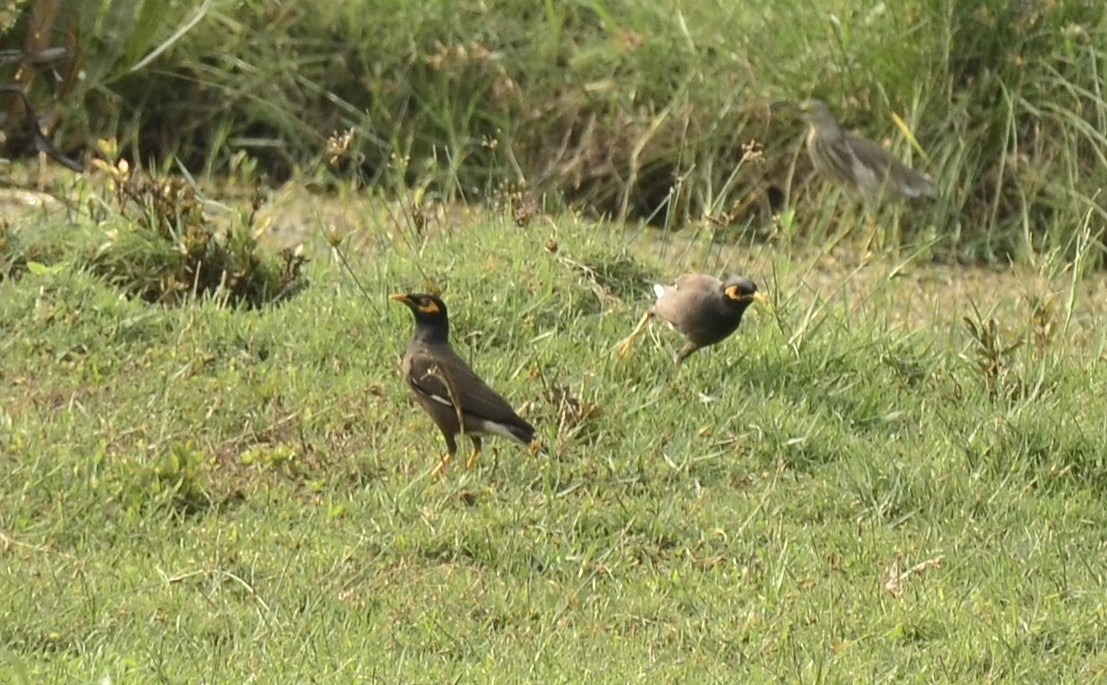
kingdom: Animalia
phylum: Chordata
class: Aves
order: Passeriformes
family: Sturnidae
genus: Acridotheres
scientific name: Acridotheres tristis
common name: Common myna
